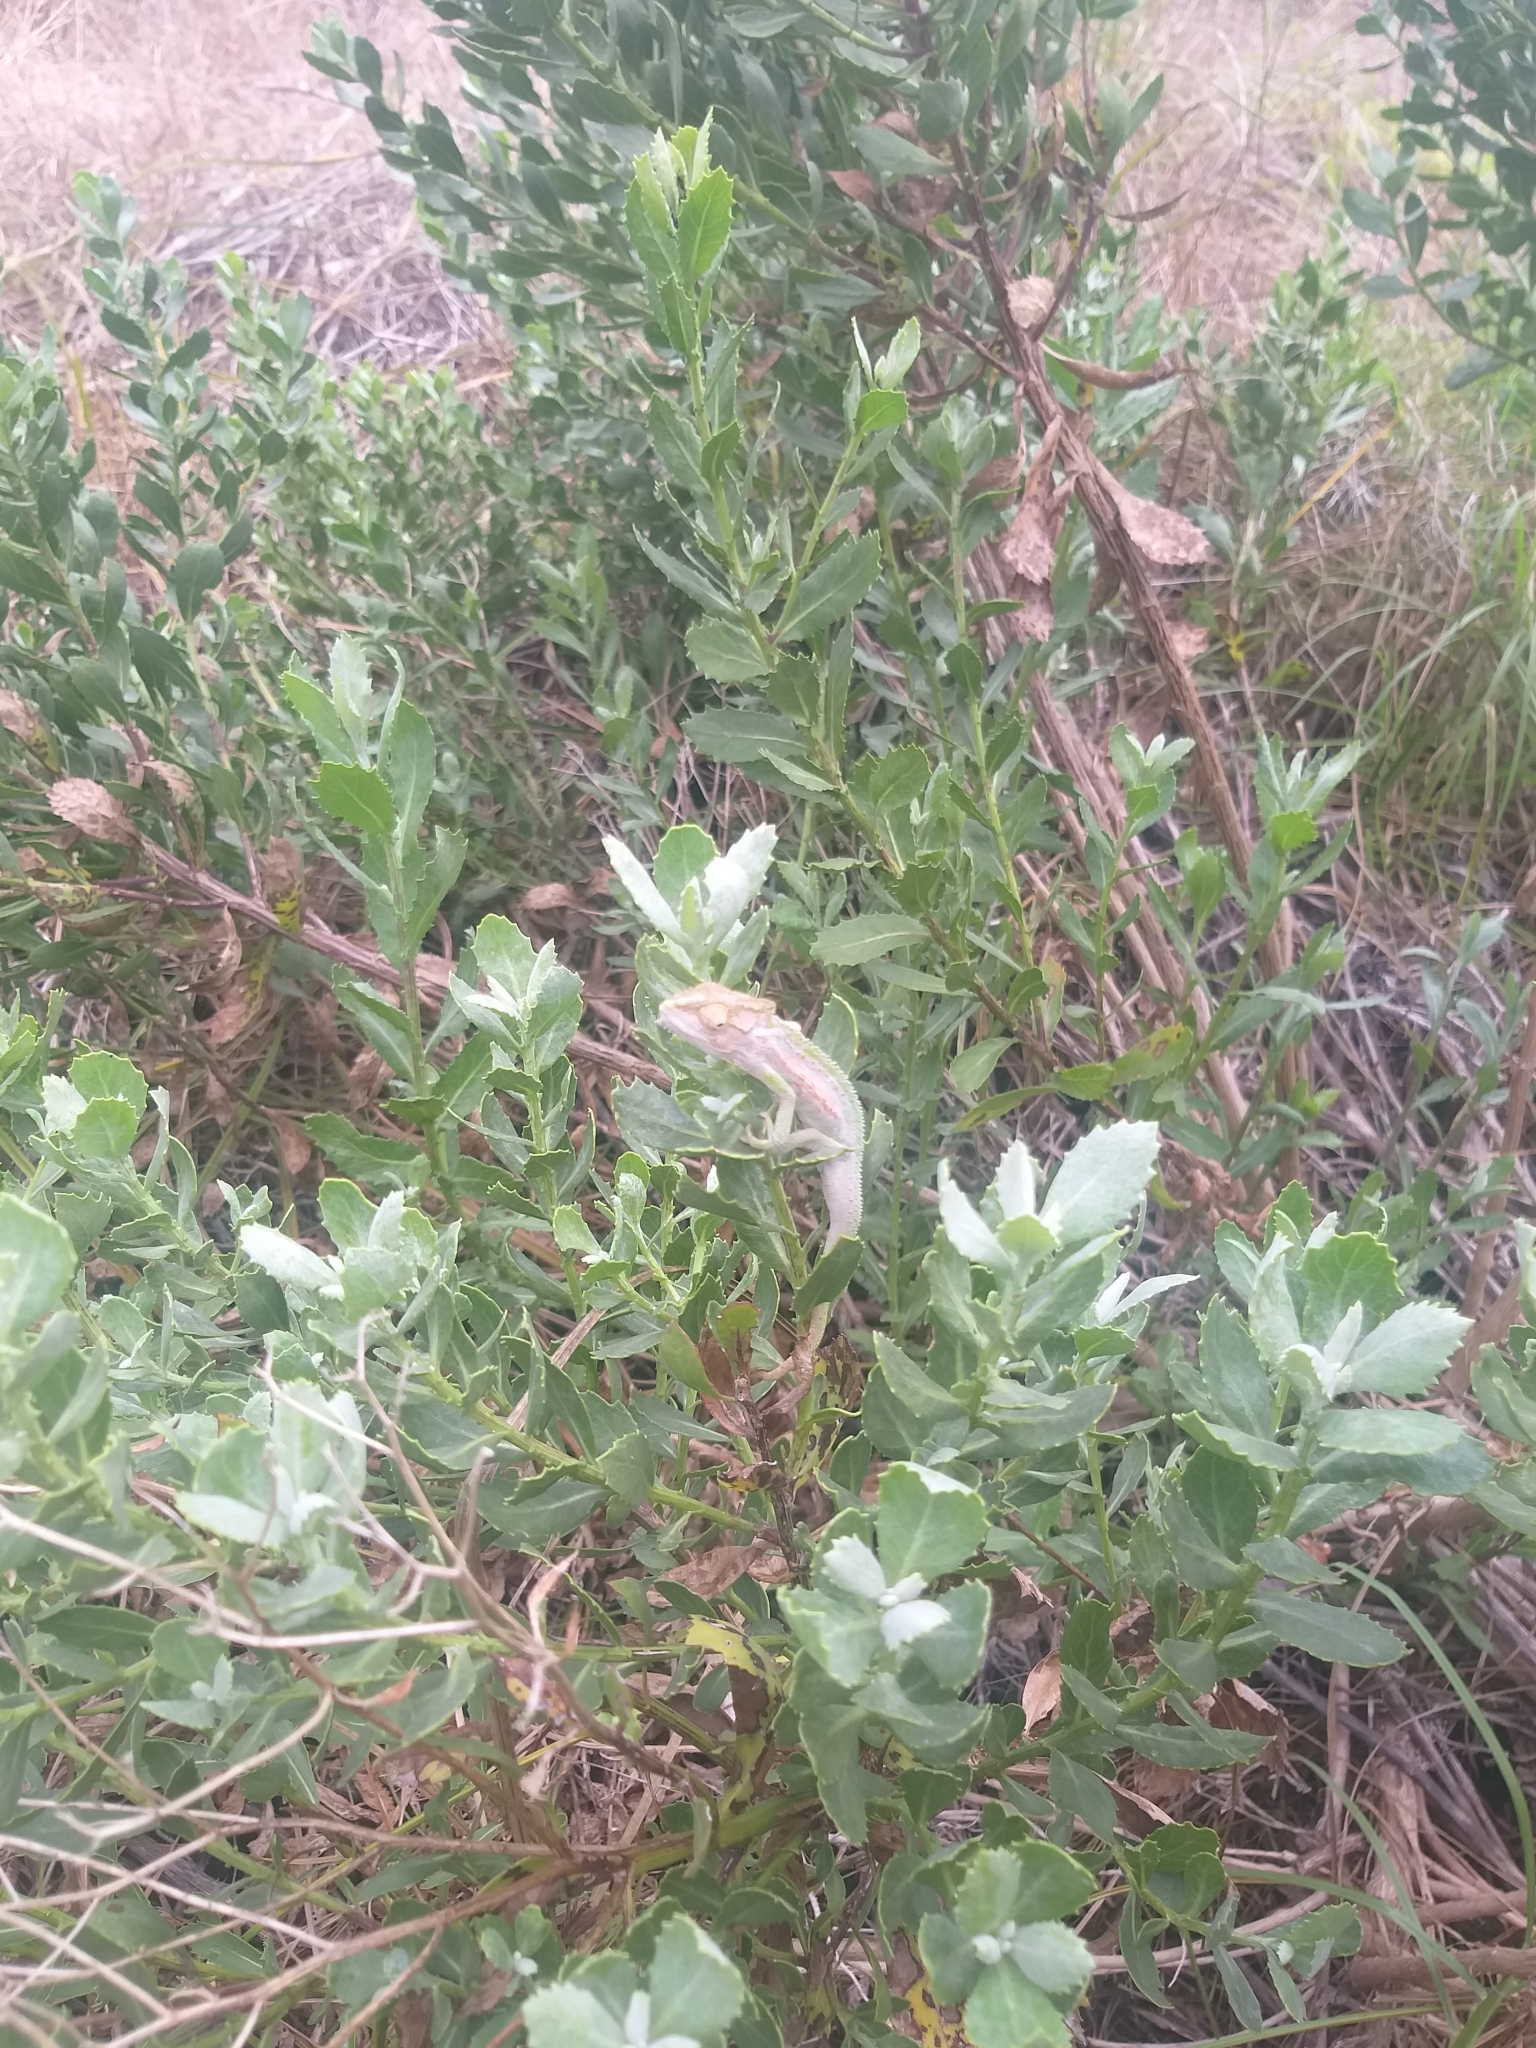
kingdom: Animalia
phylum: Chordata
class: Squamata
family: Chamaeleonidae
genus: Bradypodion
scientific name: Bradypodion pumilum
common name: Cape dwarf chameleon
